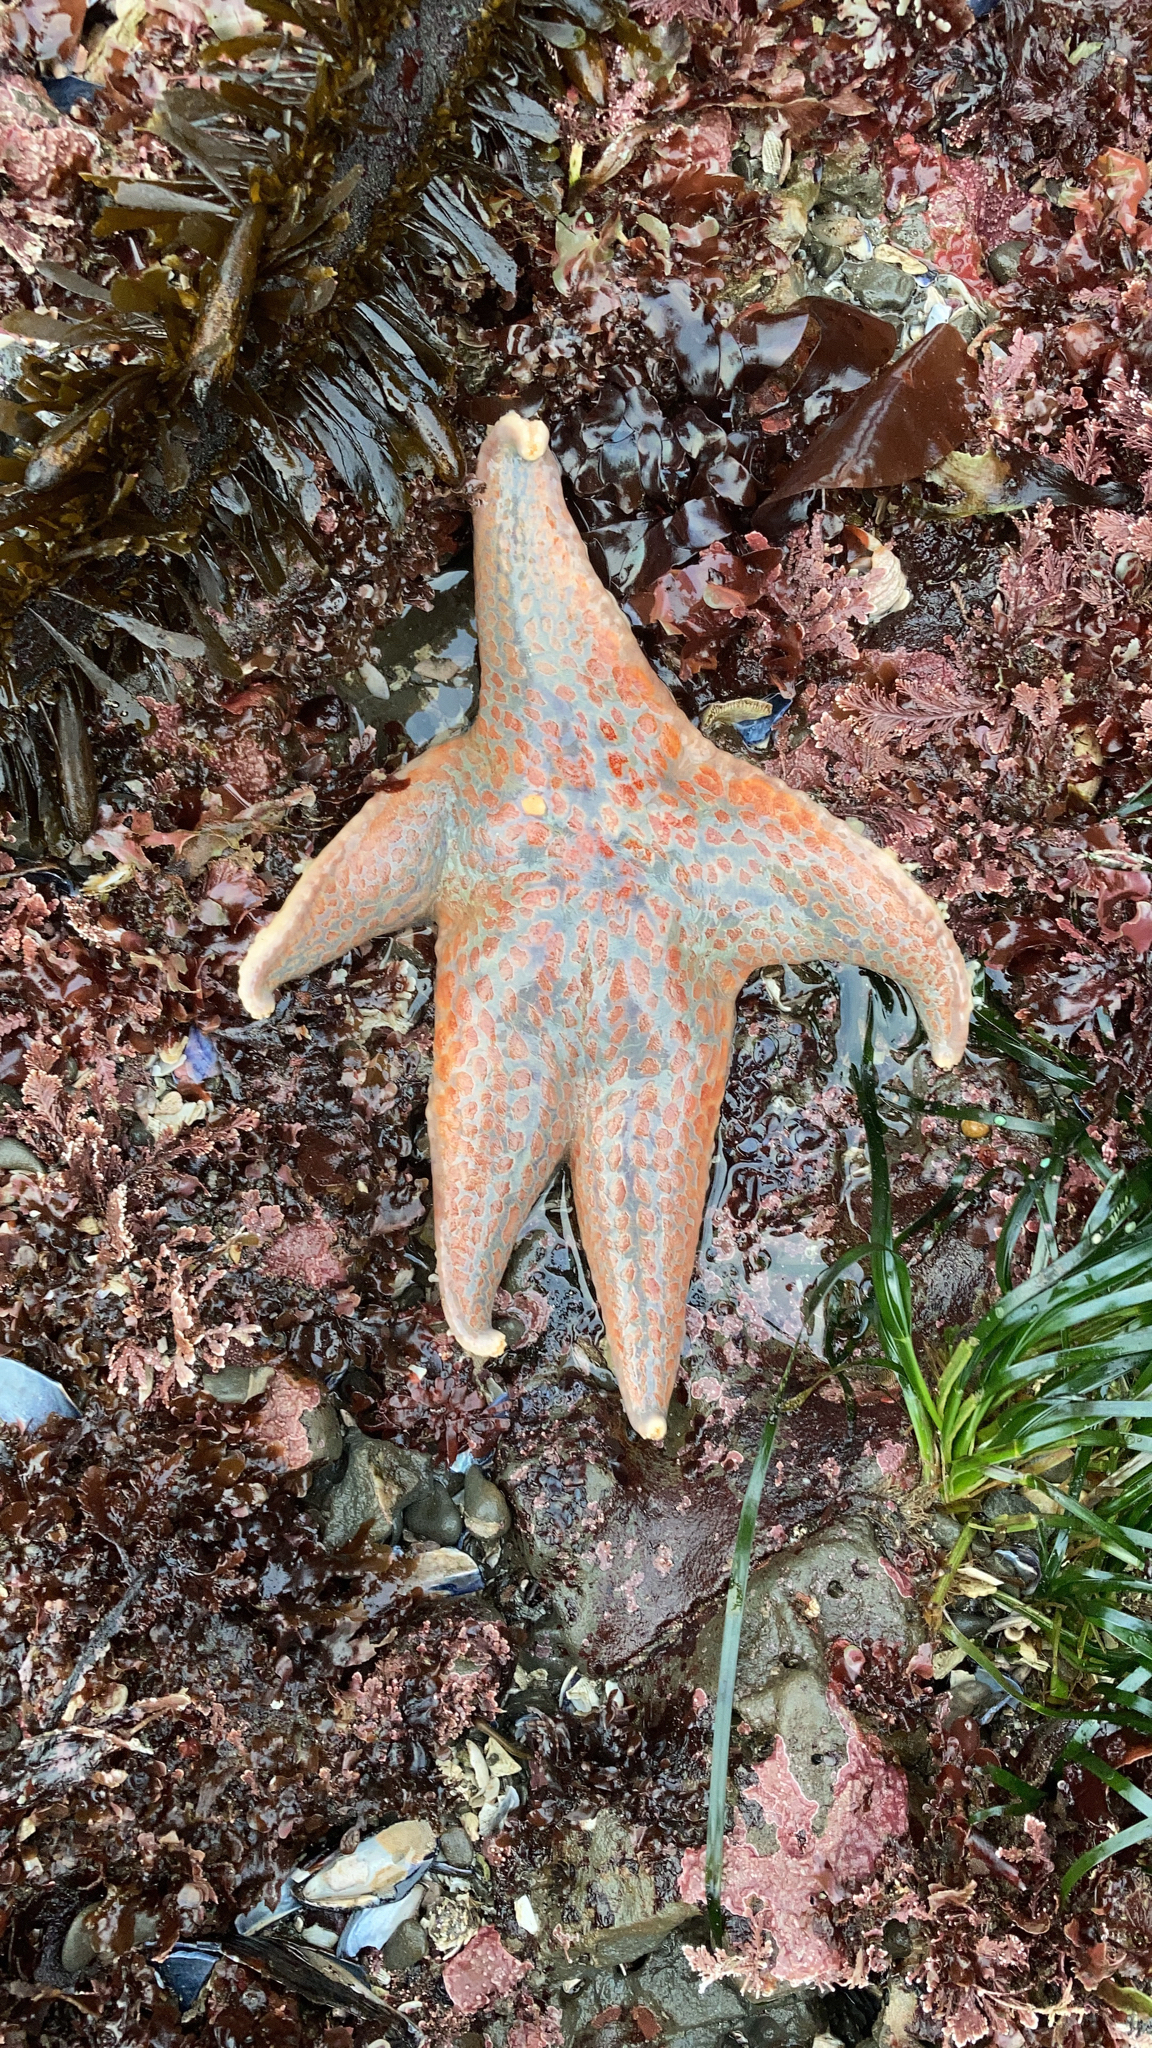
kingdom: Animalia
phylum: Echinodermata
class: Asteroidea
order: Valvatida
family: Asteropseidae
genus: Dermasterias
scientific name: Dermasterias imbricata
